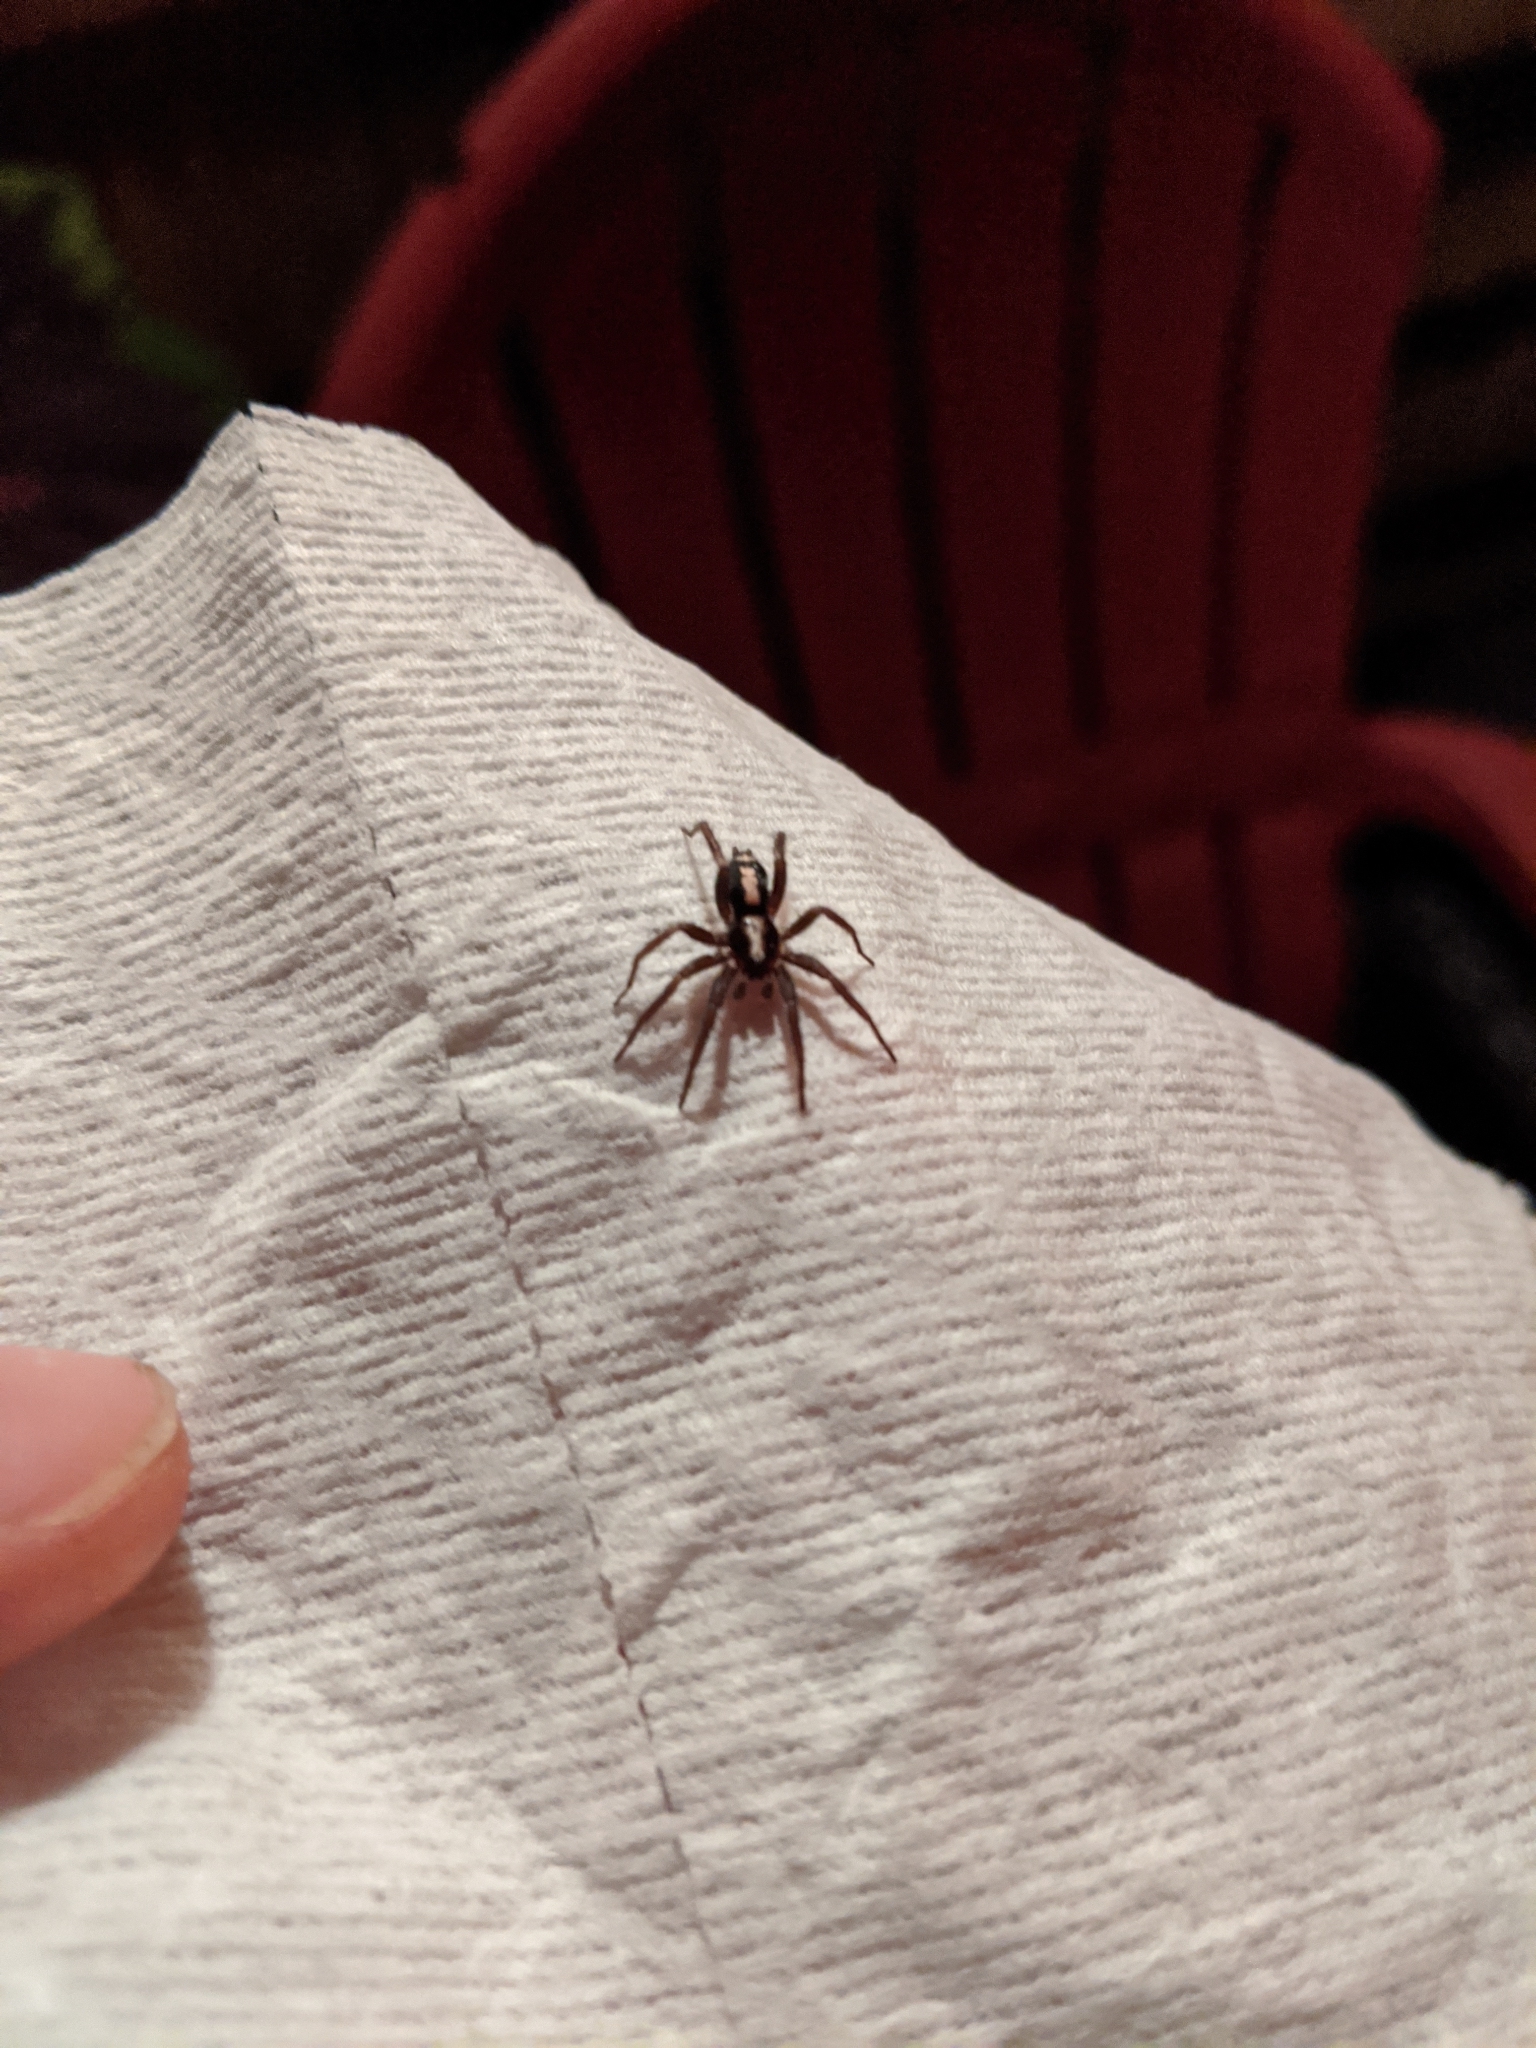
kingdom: Animalia
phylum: Arthropoda
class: Arachnida
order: Araneae
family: Gnaphosidae
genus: Herpyllus
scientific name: Herpyllus ecclesiasticus
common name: Eastern parson spider
